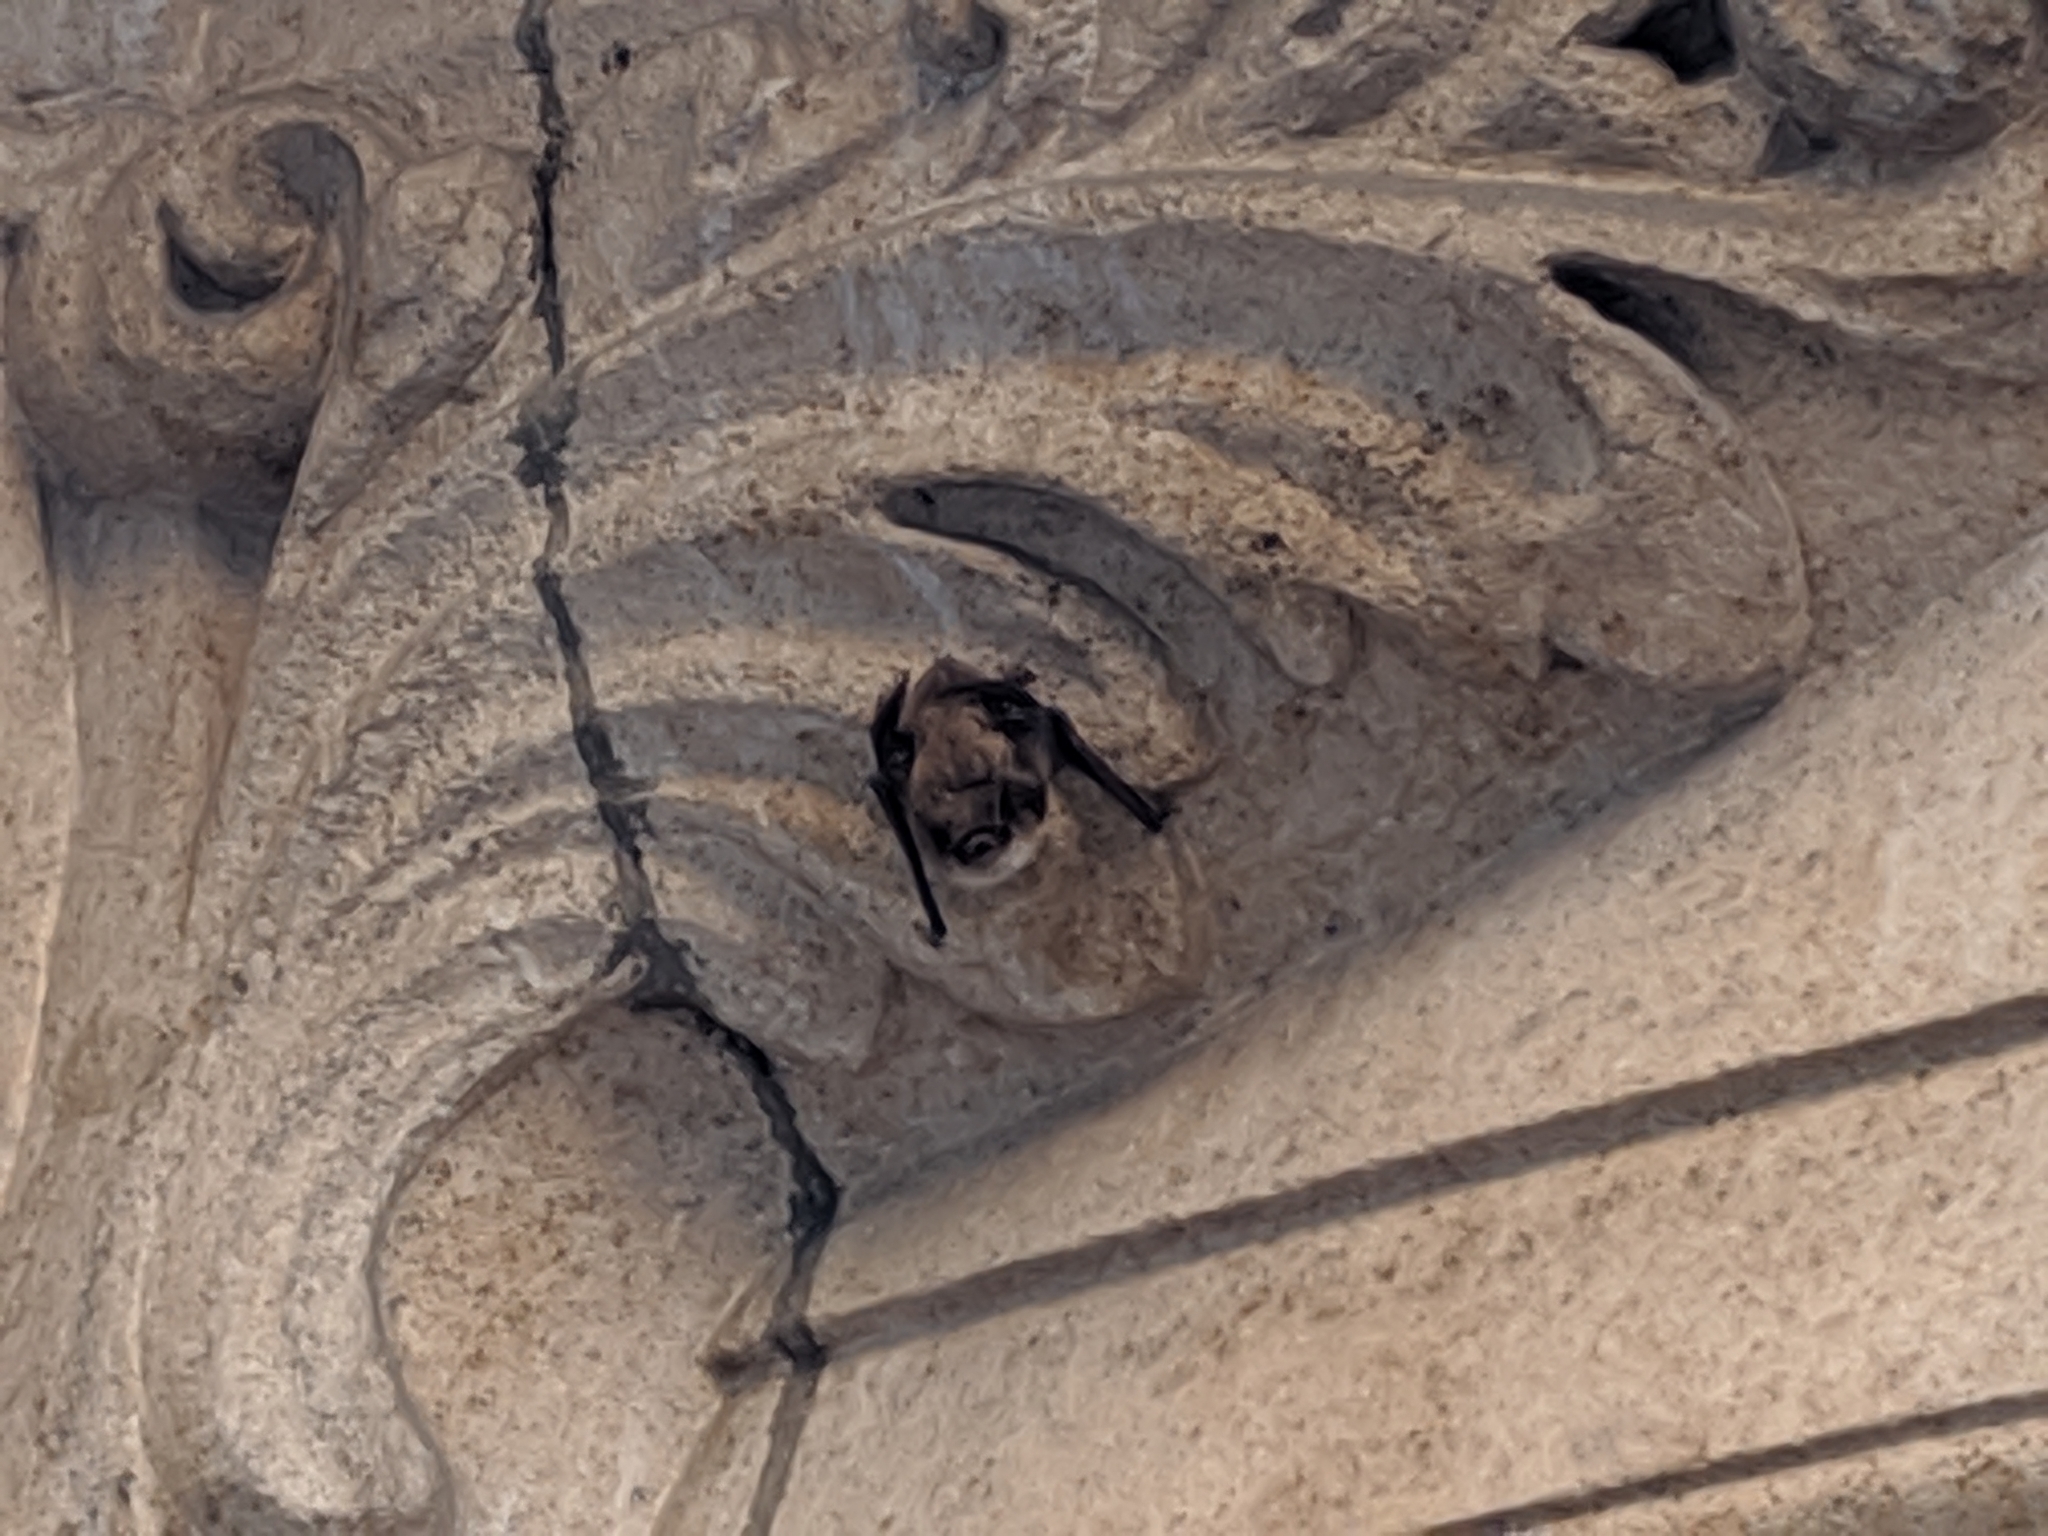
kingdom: Animalia
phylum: Chordata
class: Mammalia
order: Chiroptera
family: Vespertilionidae
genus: Myotis
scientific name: Myotis
